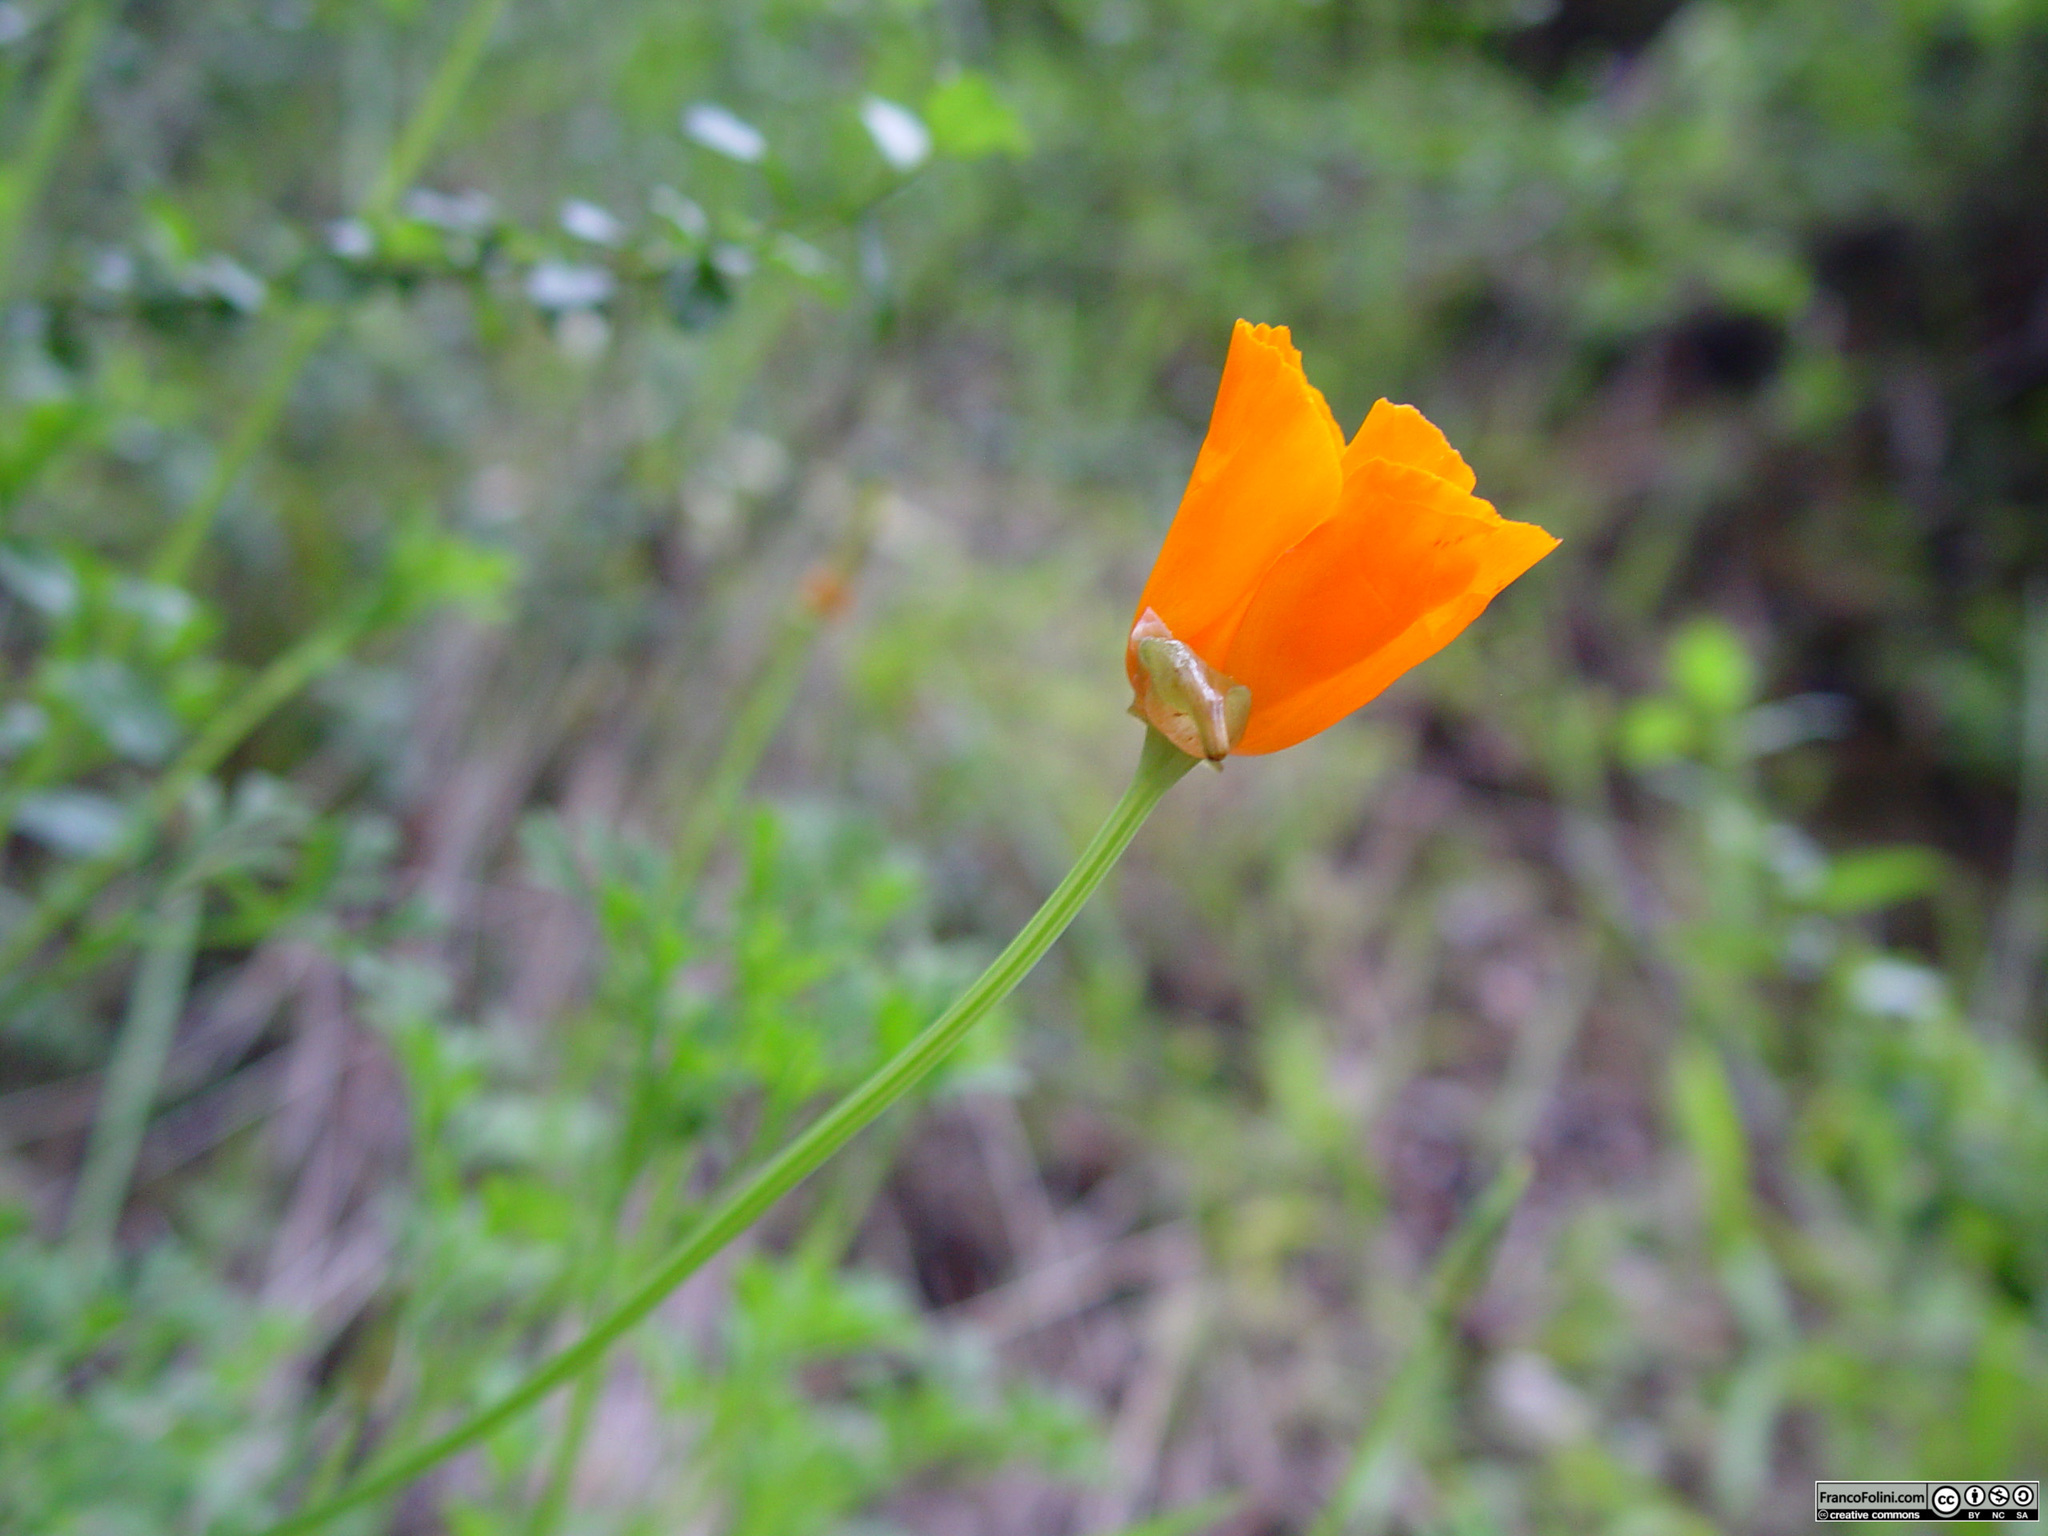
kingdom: Plantae
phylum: Tracheophyta
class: Magnoliopsida
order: Ranunculales
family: Papaveraceae
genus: Eschscholzia
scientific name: Eschscholzia californica
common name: California poppy
